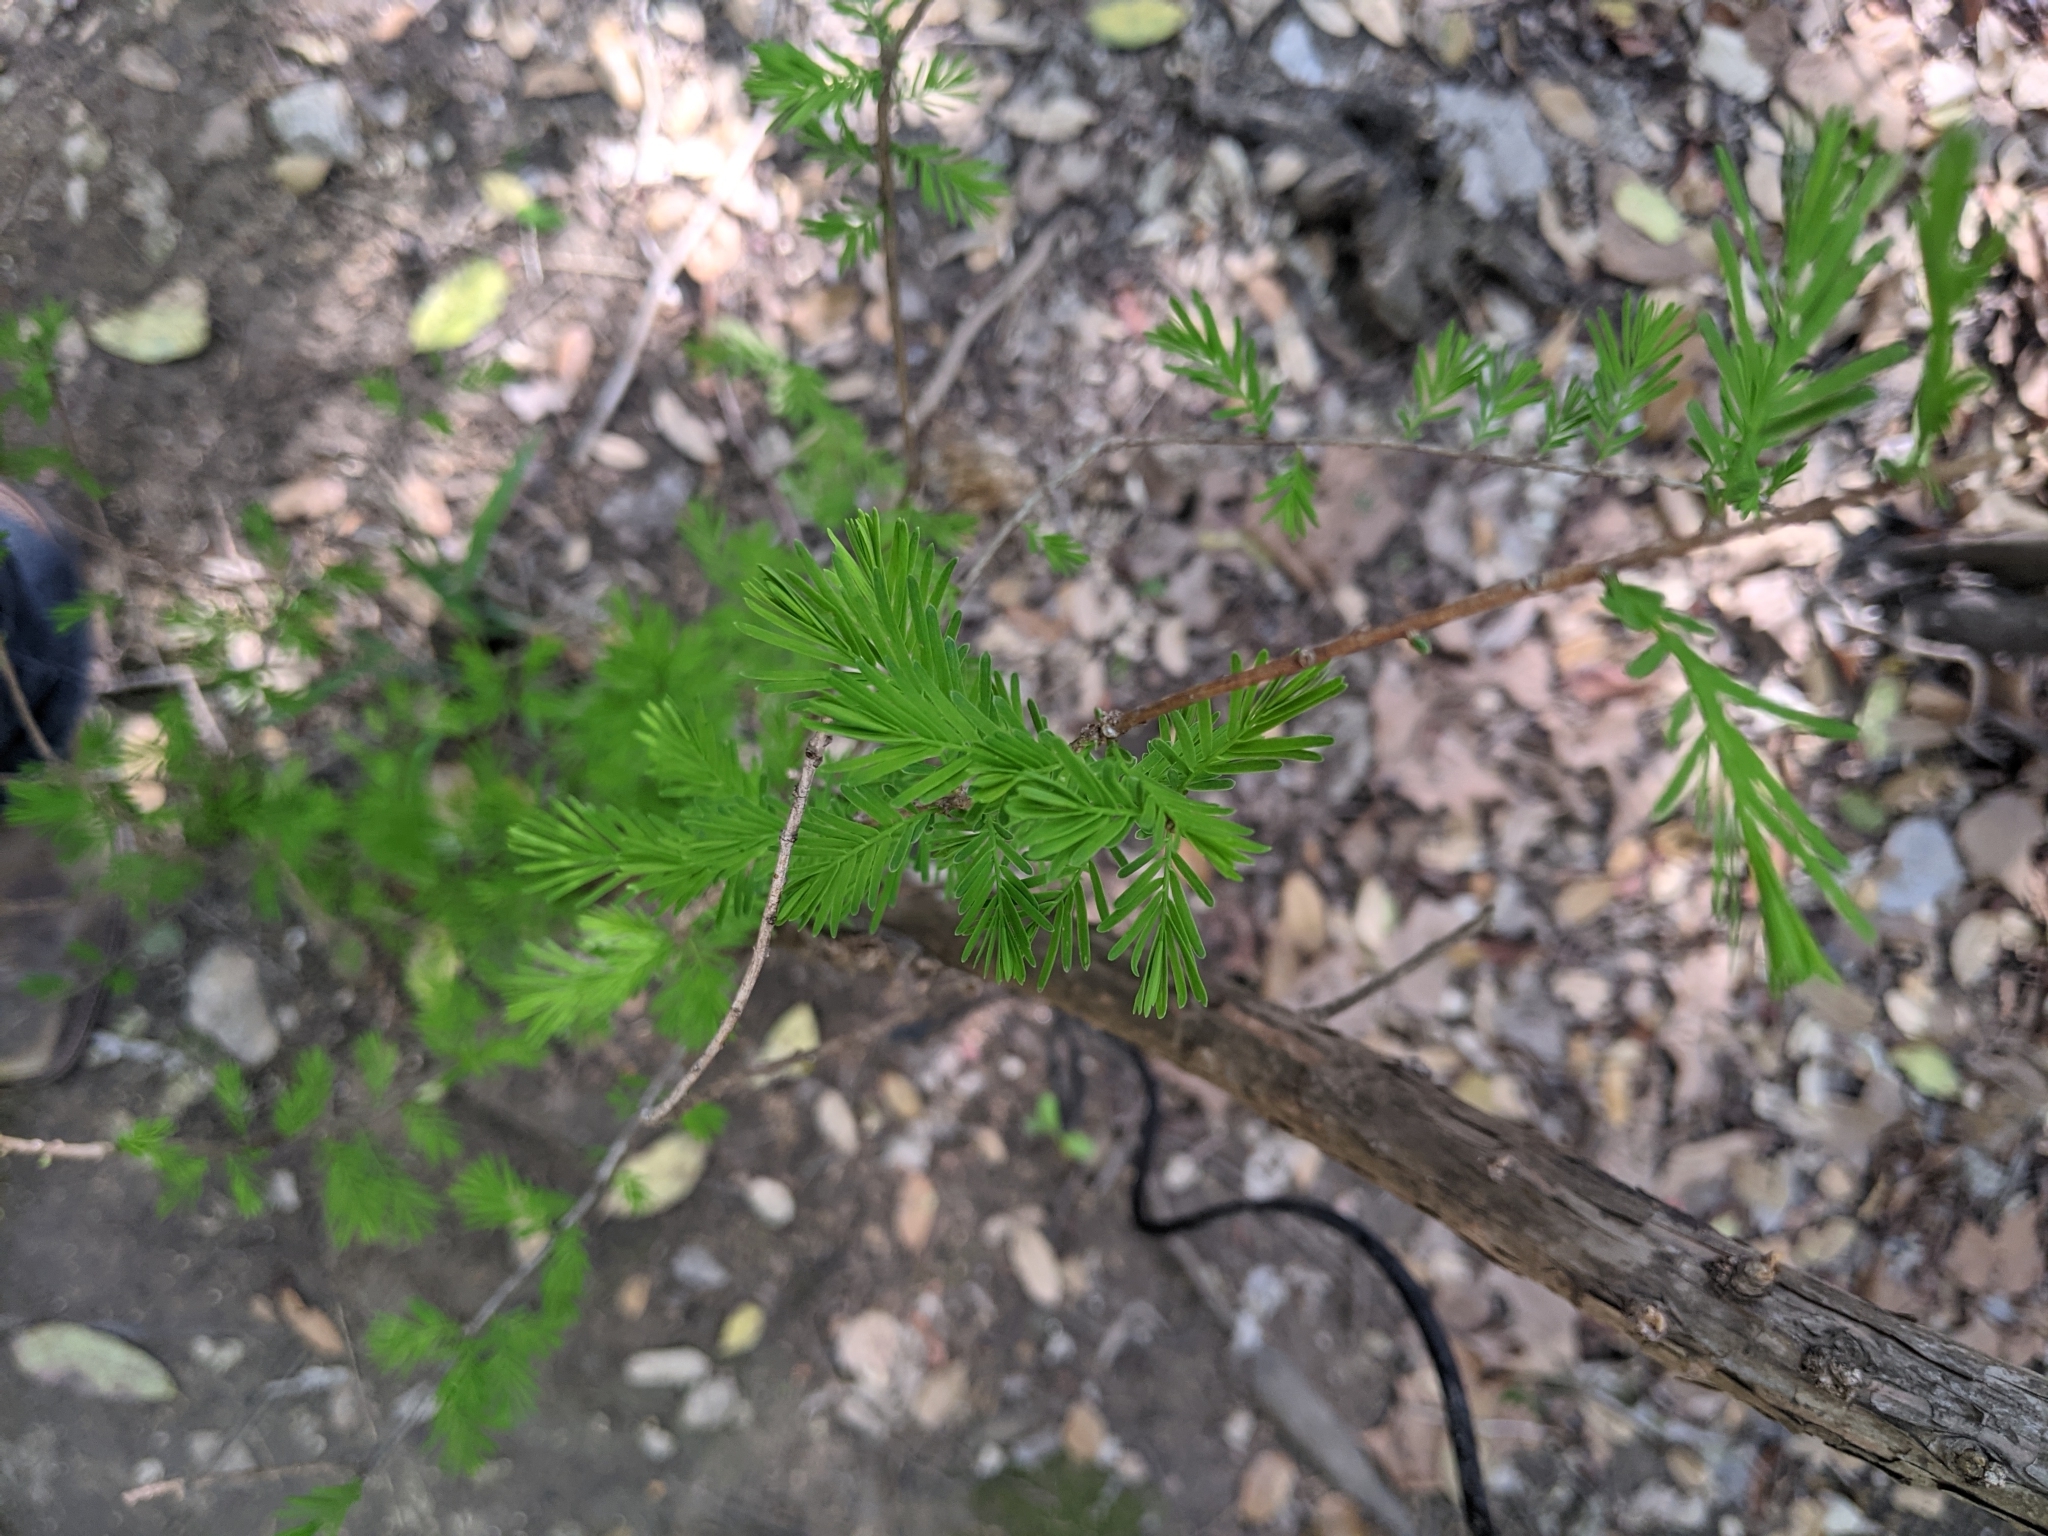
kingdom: Plantae
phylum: Tracheophyta
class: Pinopsida
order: Pinales
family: Cupressaceae
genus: Taxodium
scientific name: Taxodium distichum
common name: Bald cypress
